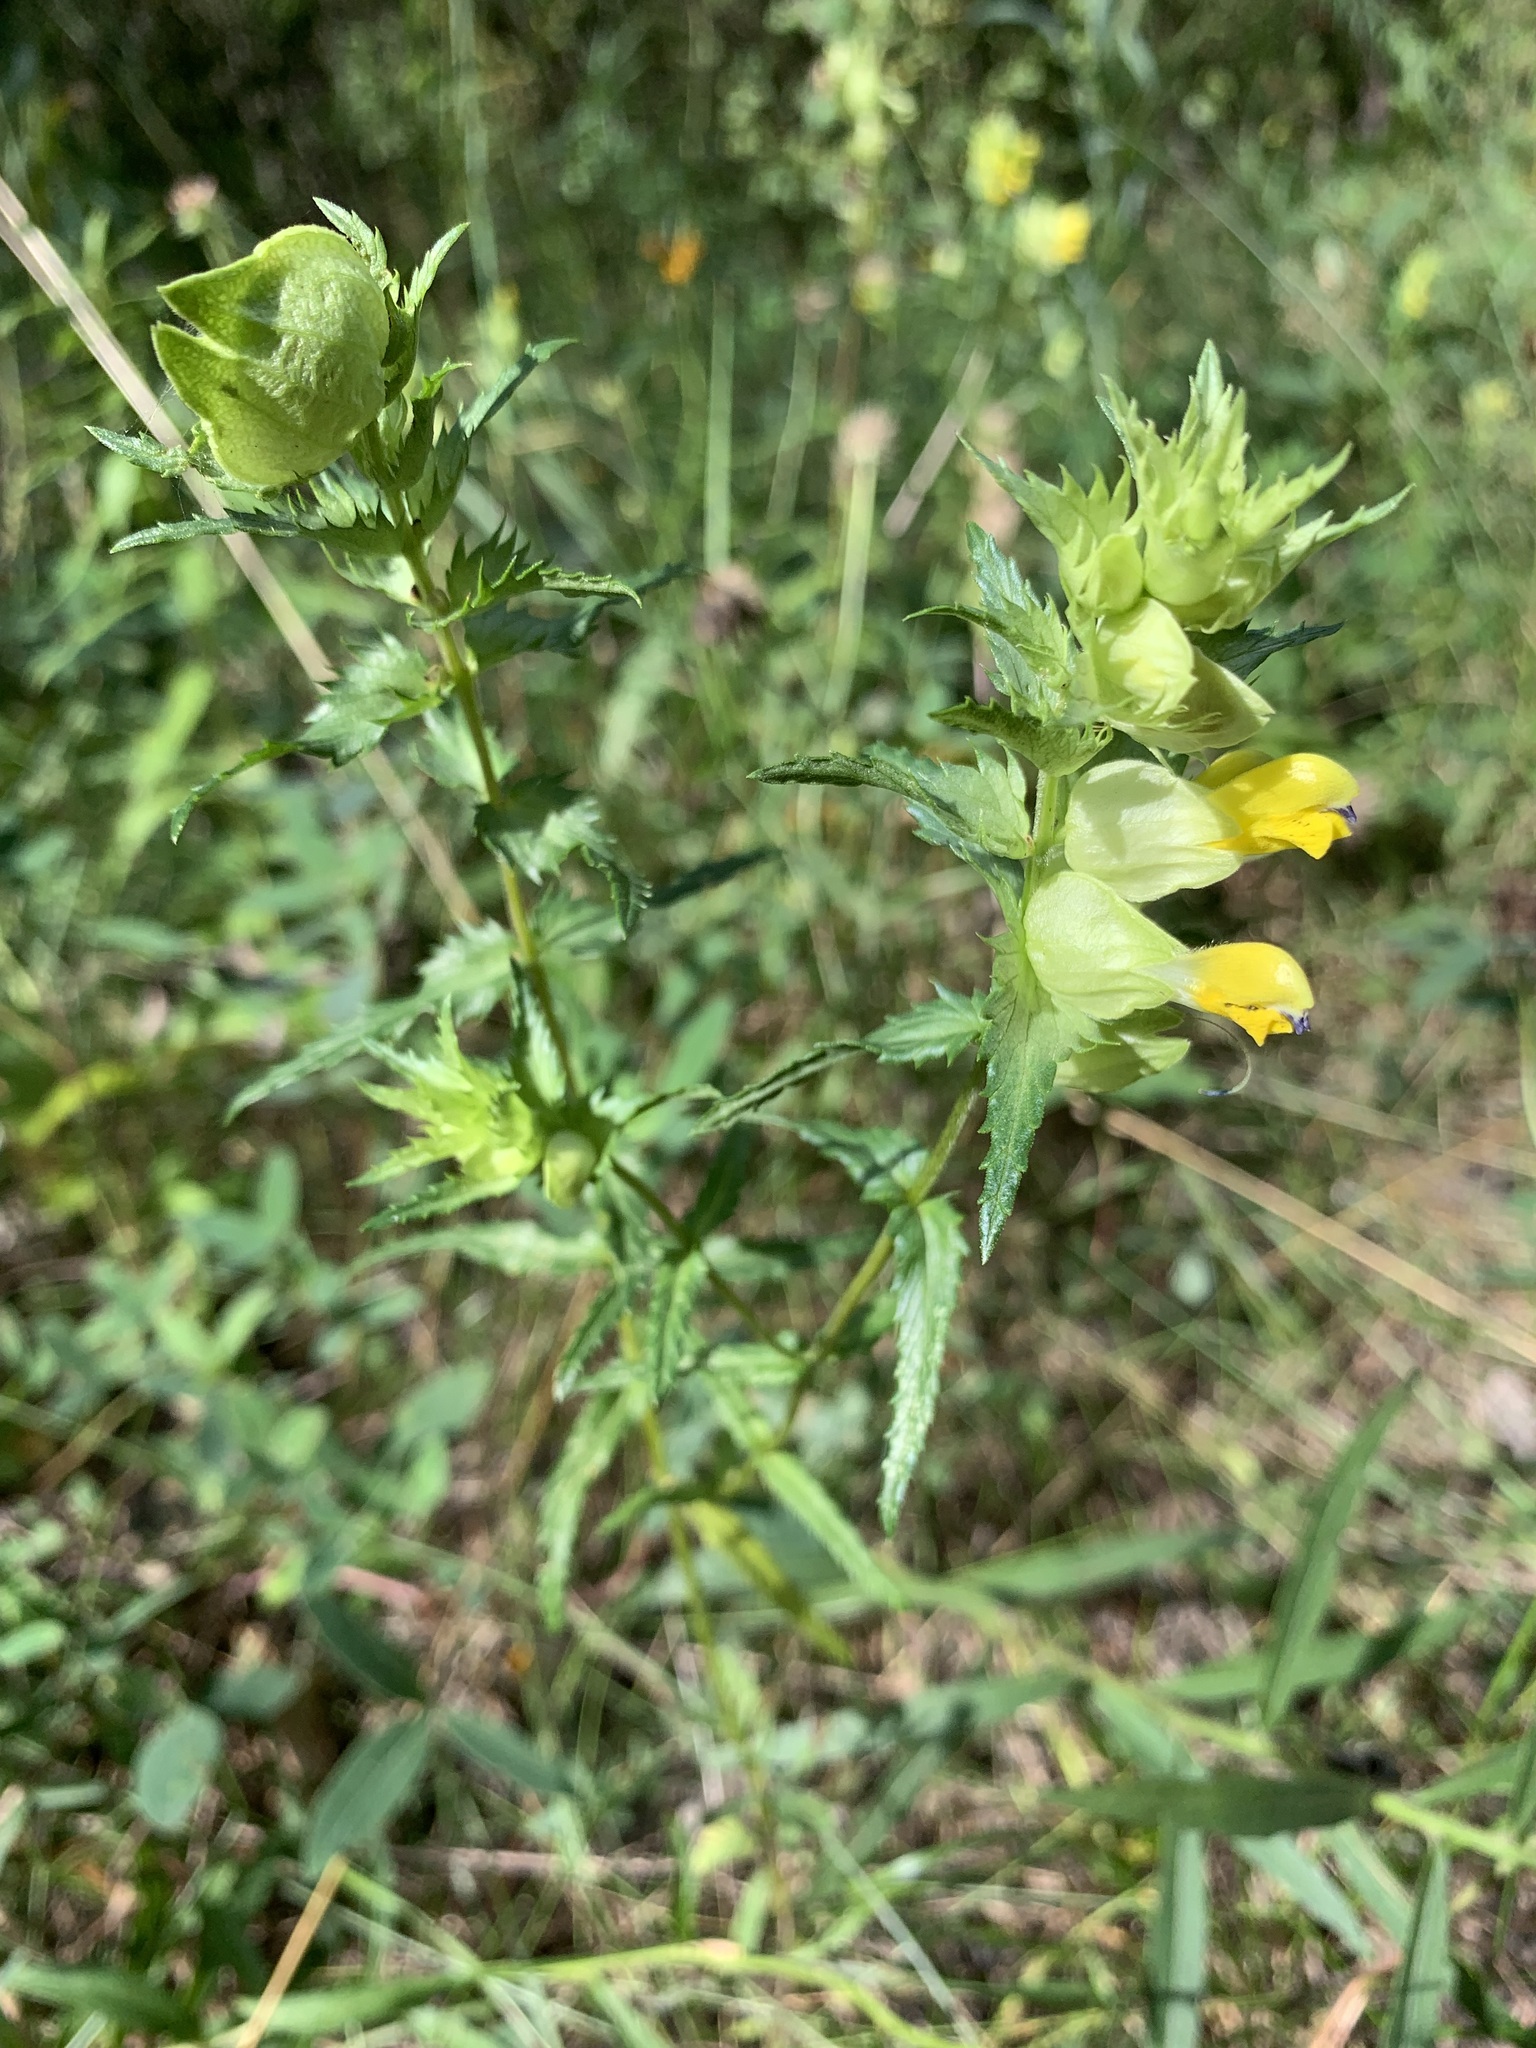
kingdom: Plantae
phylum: Tracheophyta
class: Magnoliopsida
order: Lamiales
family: Orobanchaceae
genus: Rhinanthus
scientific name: Rhinanthus serotinus
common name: Late-flowering yellow rattle
